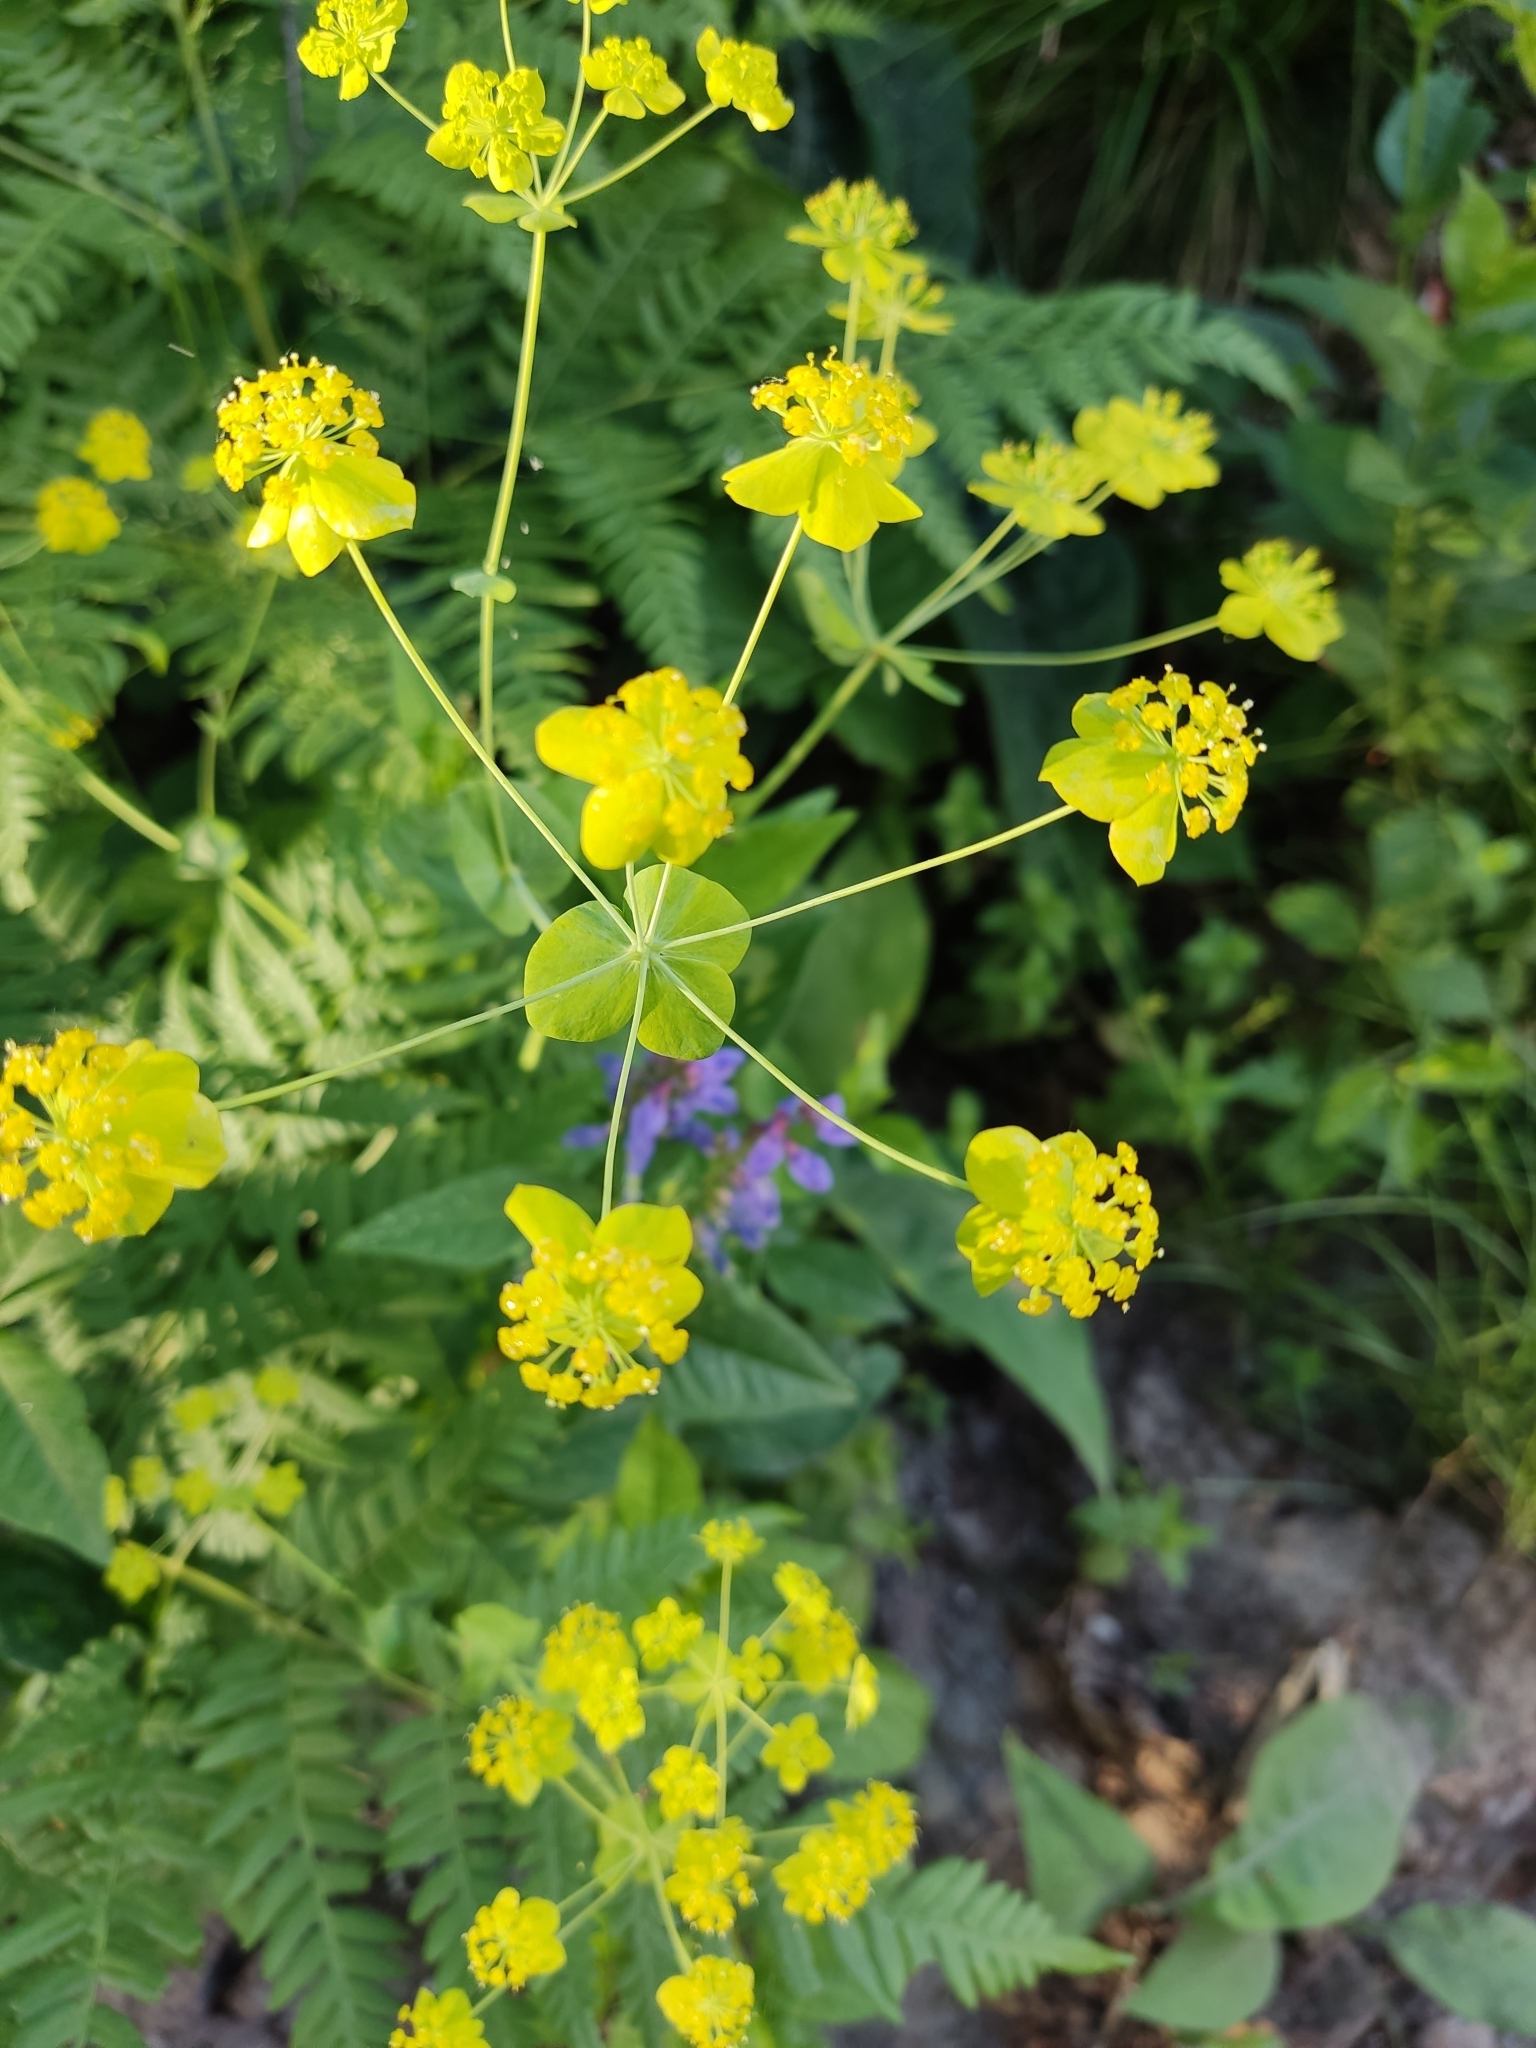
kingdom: Plantae
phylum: Tracheophyta
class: Magnoliopsida
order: Apiales
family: Apiaceae
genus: Bupleurum
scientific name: Bupleurum aureum
